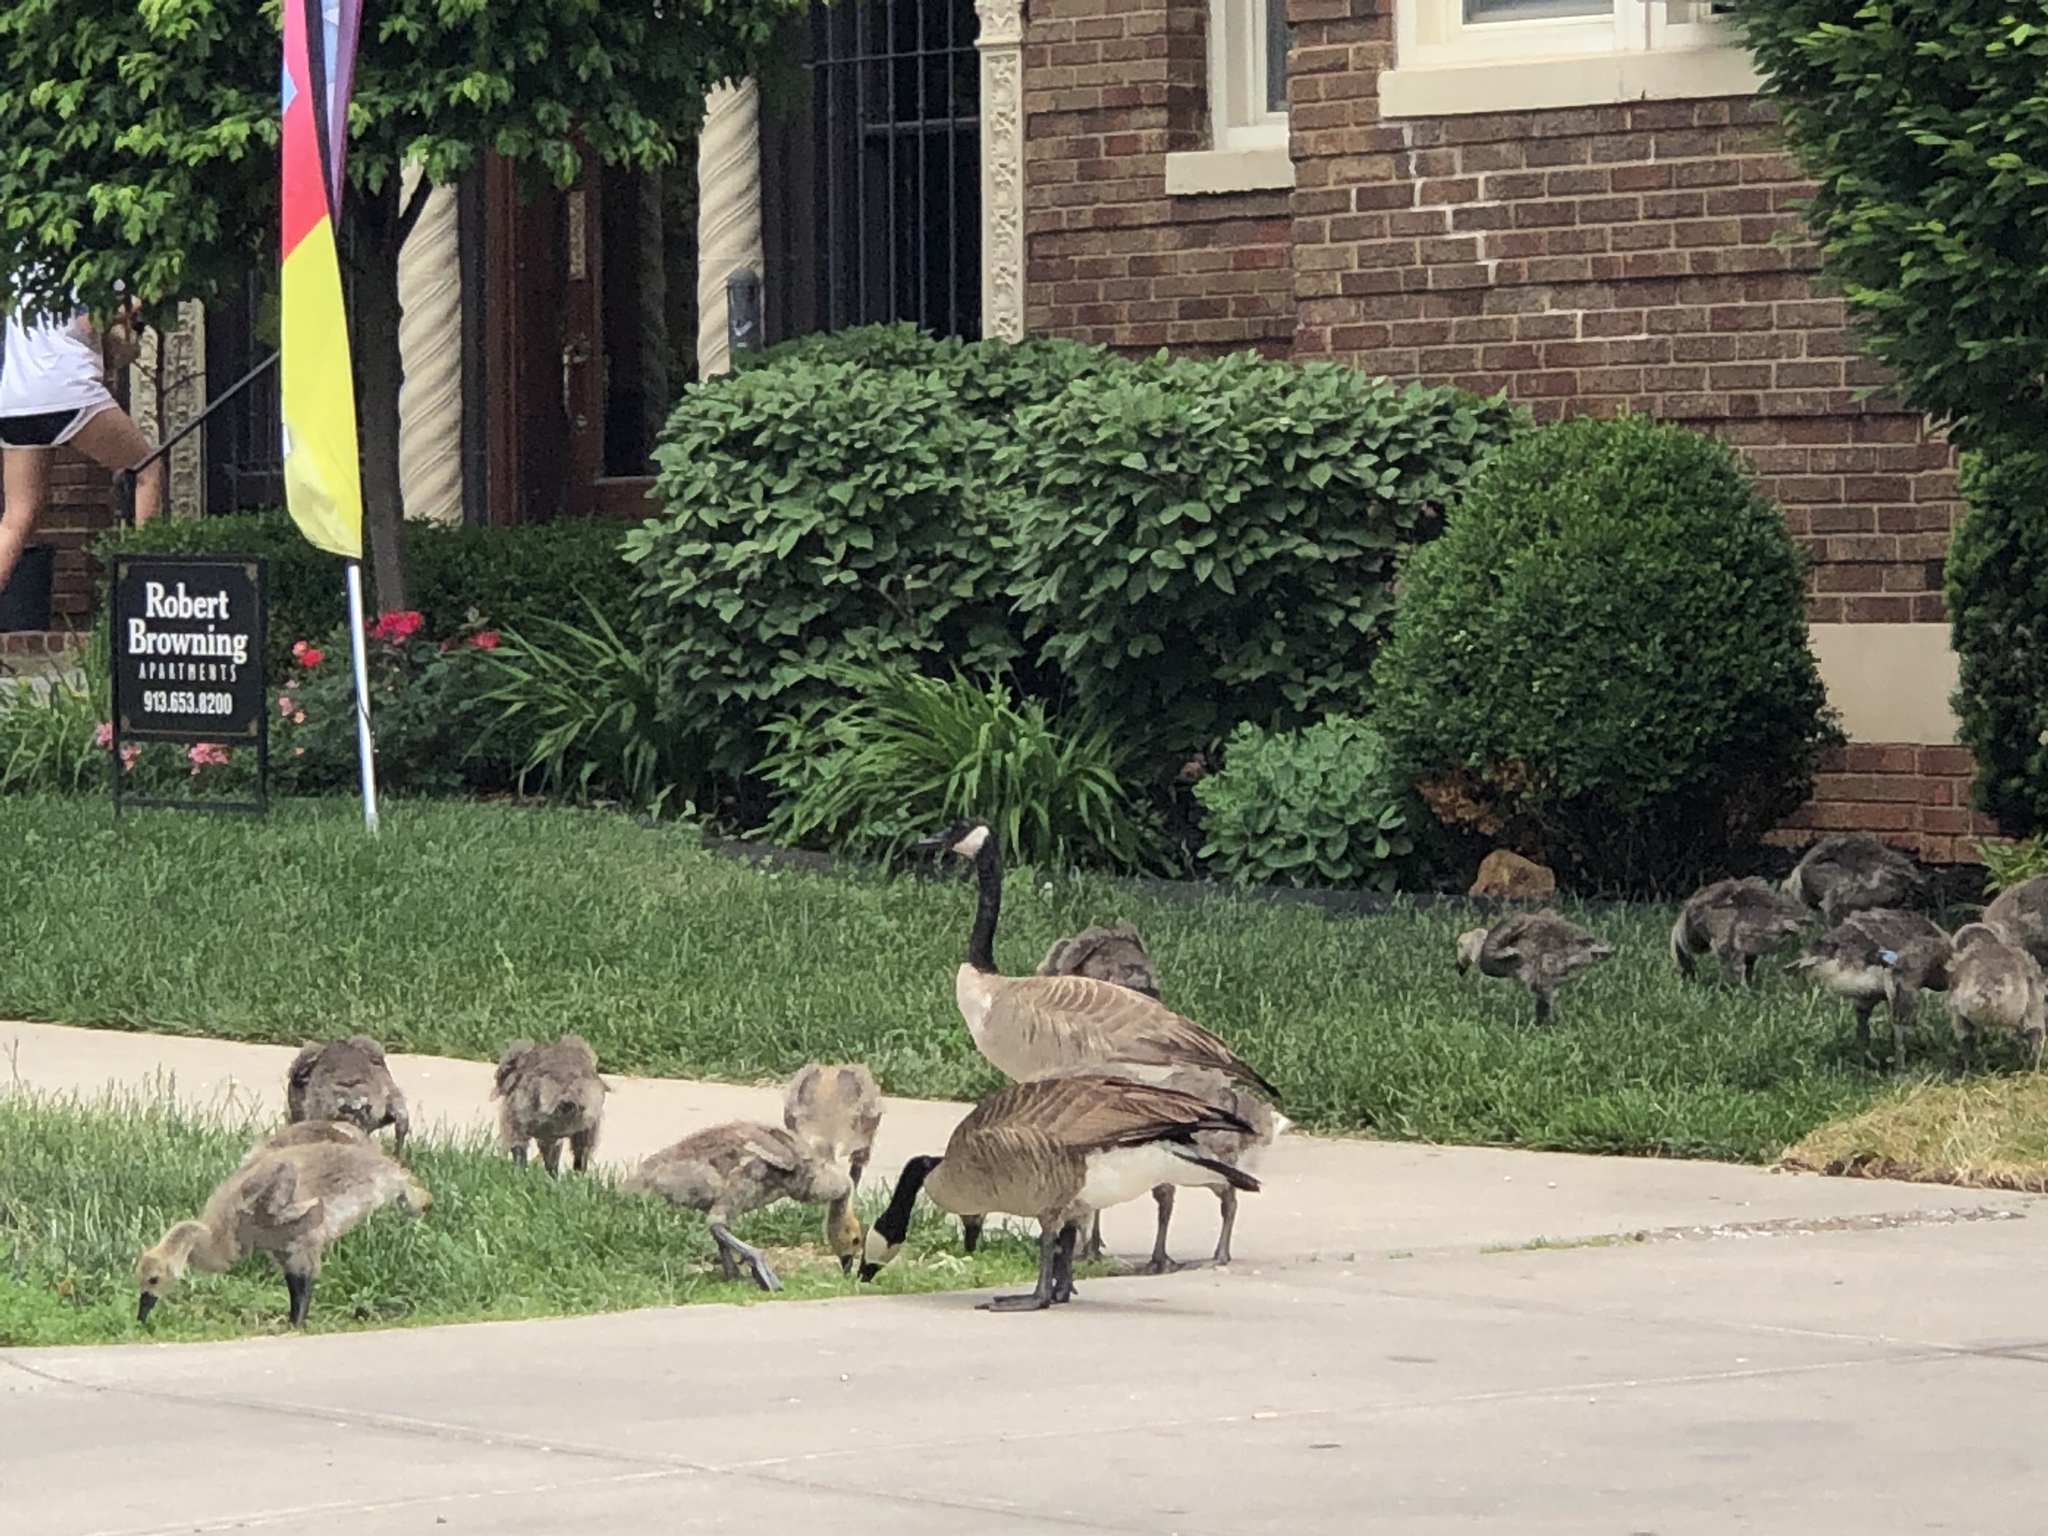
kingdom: Animalia
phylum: Chordata
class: Aves
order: Anseriformes
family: Anatidae
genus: Branta
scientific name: Branta canadensis
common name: Canada goose
